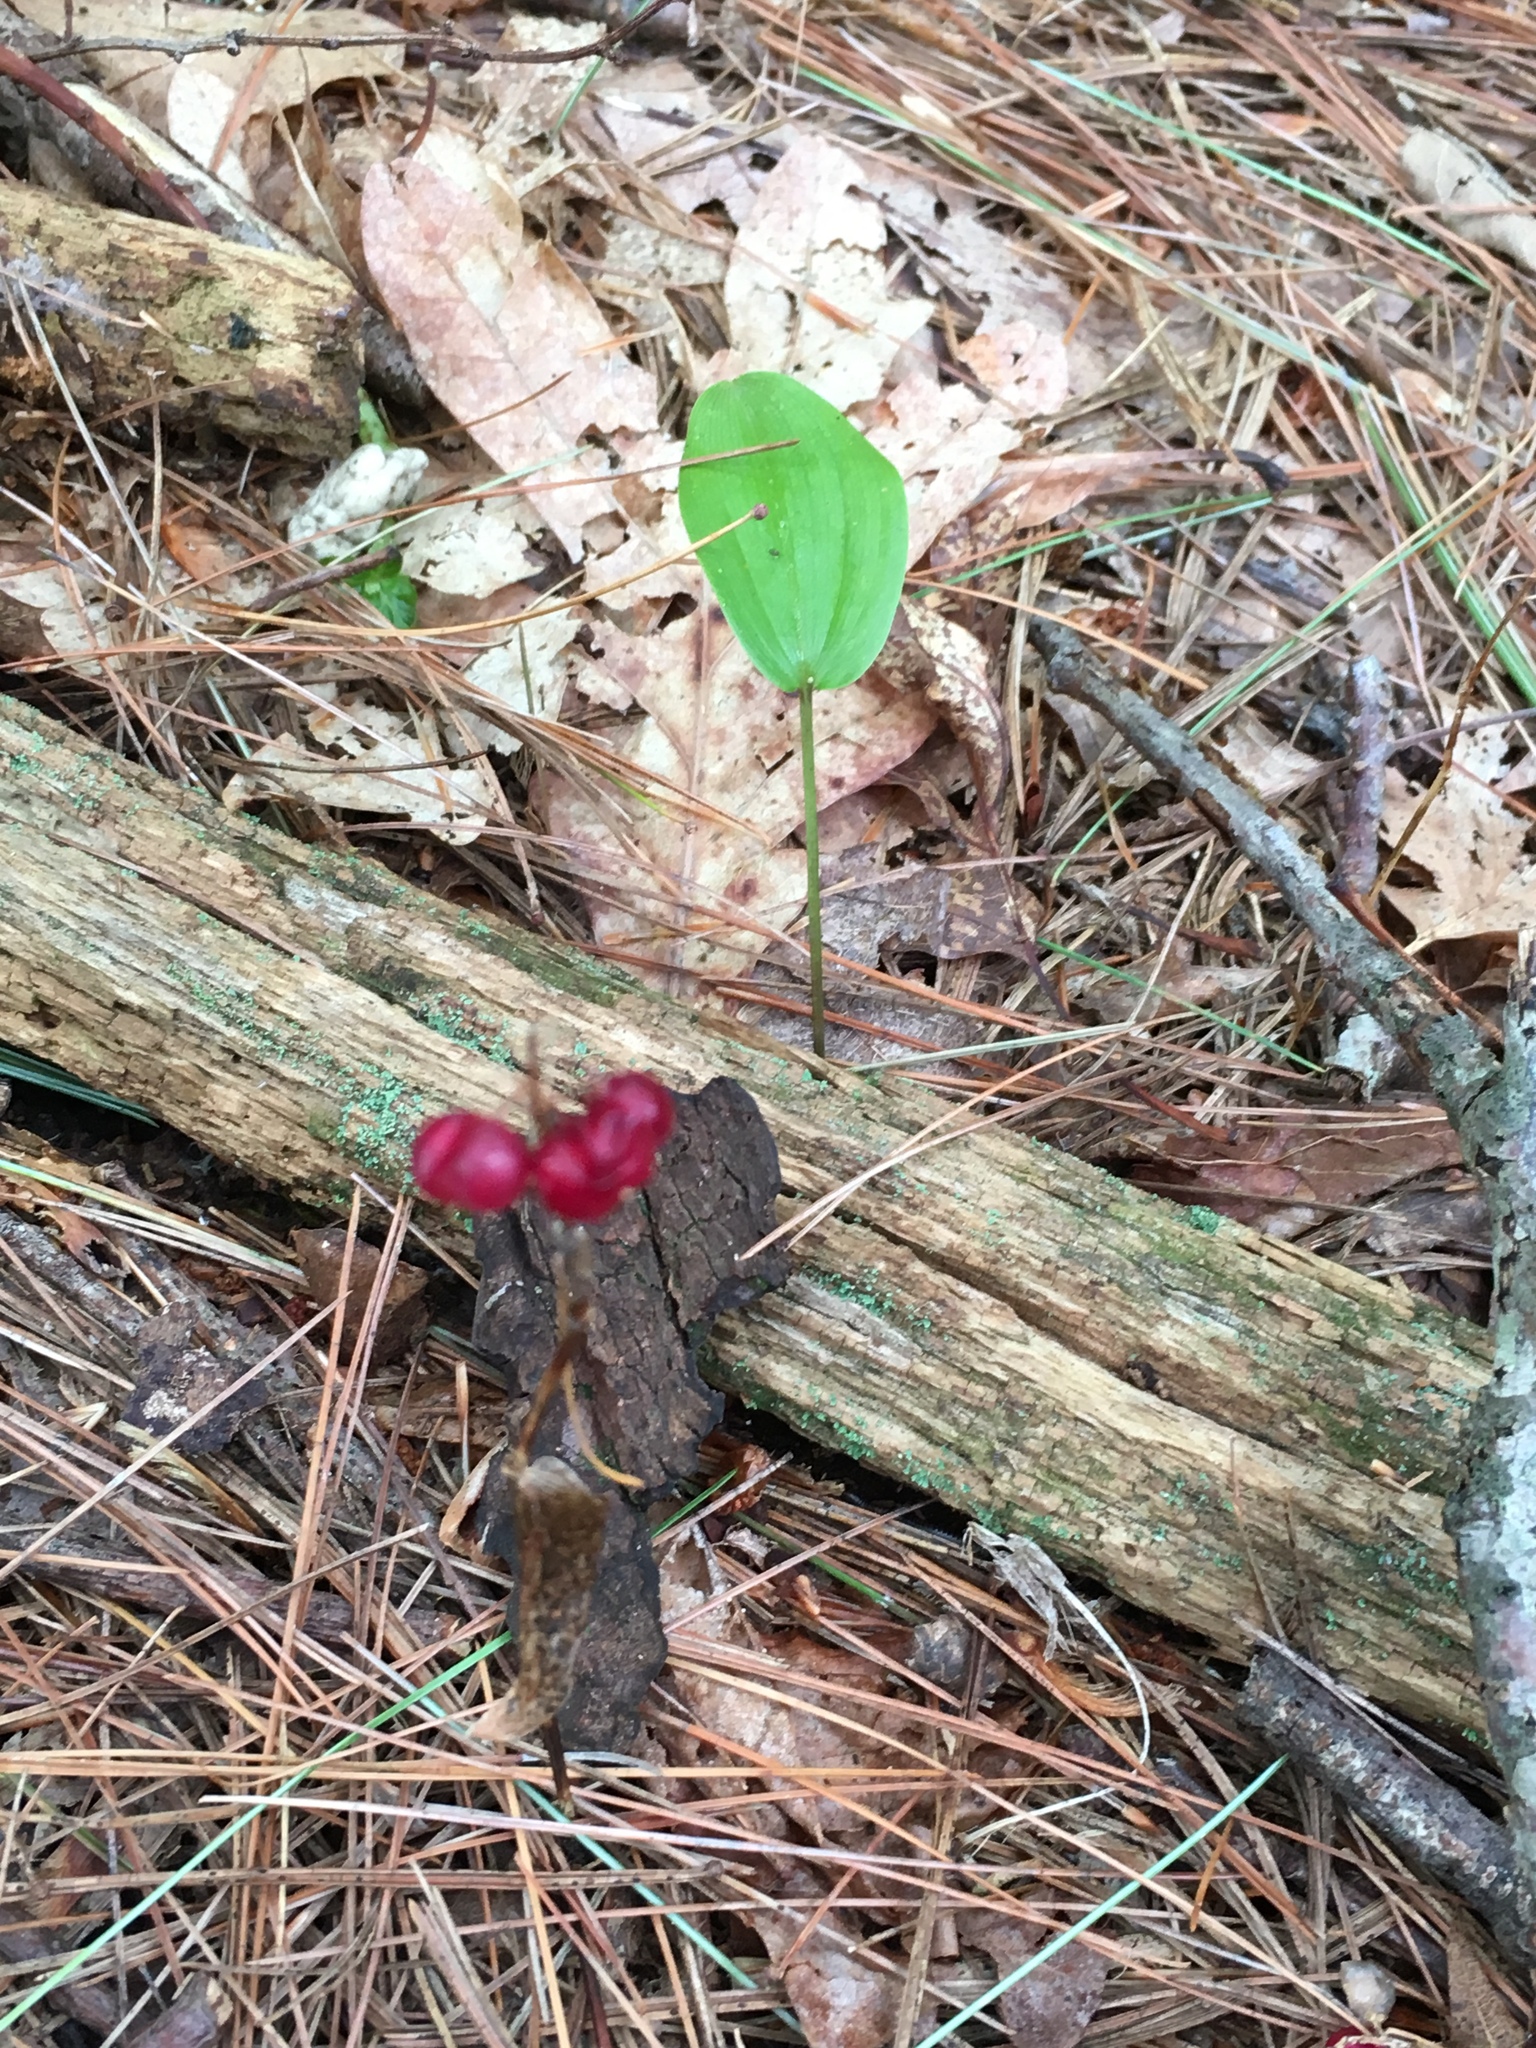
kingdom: Plantae
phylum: Tracheophyta
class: Liliopsida
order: Asparagales
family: Asparagaceae
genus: Maianthemum
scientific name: Maianthemum canadense
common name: False lily-of-the-valley
